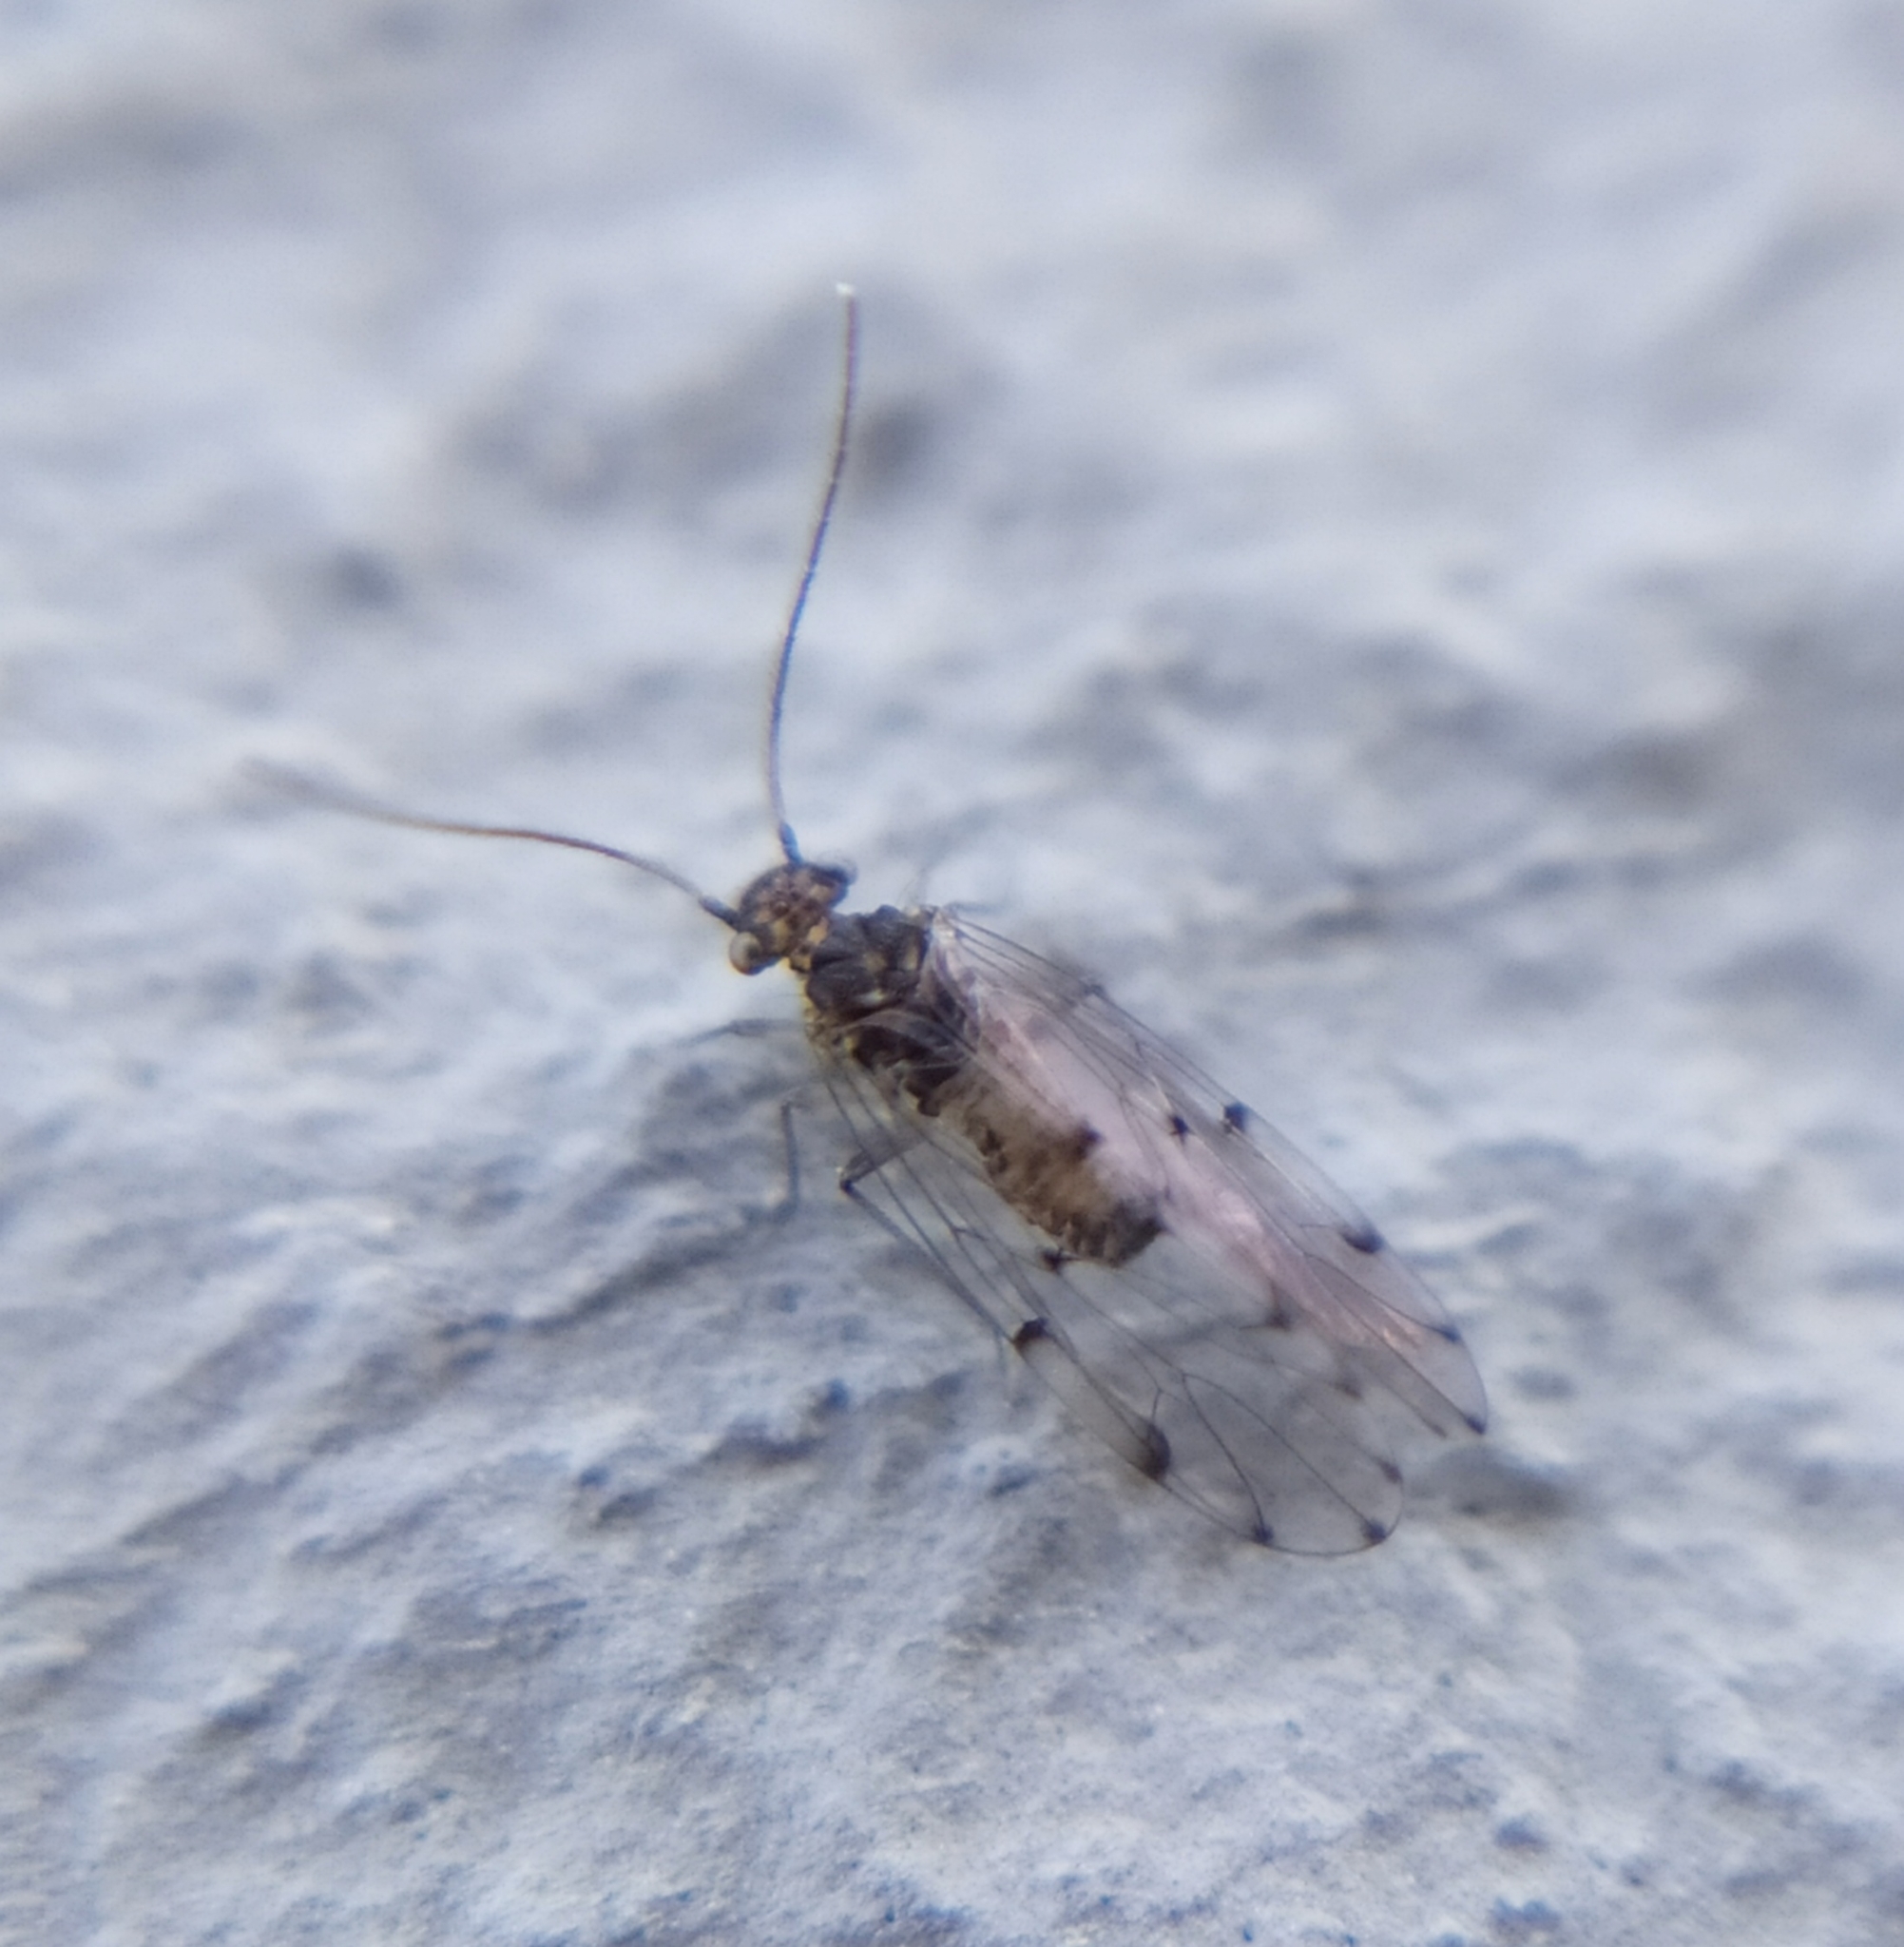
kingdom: Animalia
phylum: Arthropoda
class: Insecta
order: Psocodea
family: Ectopsocidae
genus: Ectopsocus
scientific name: Ectopsocus petersi
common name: Medium-sized bark louse
